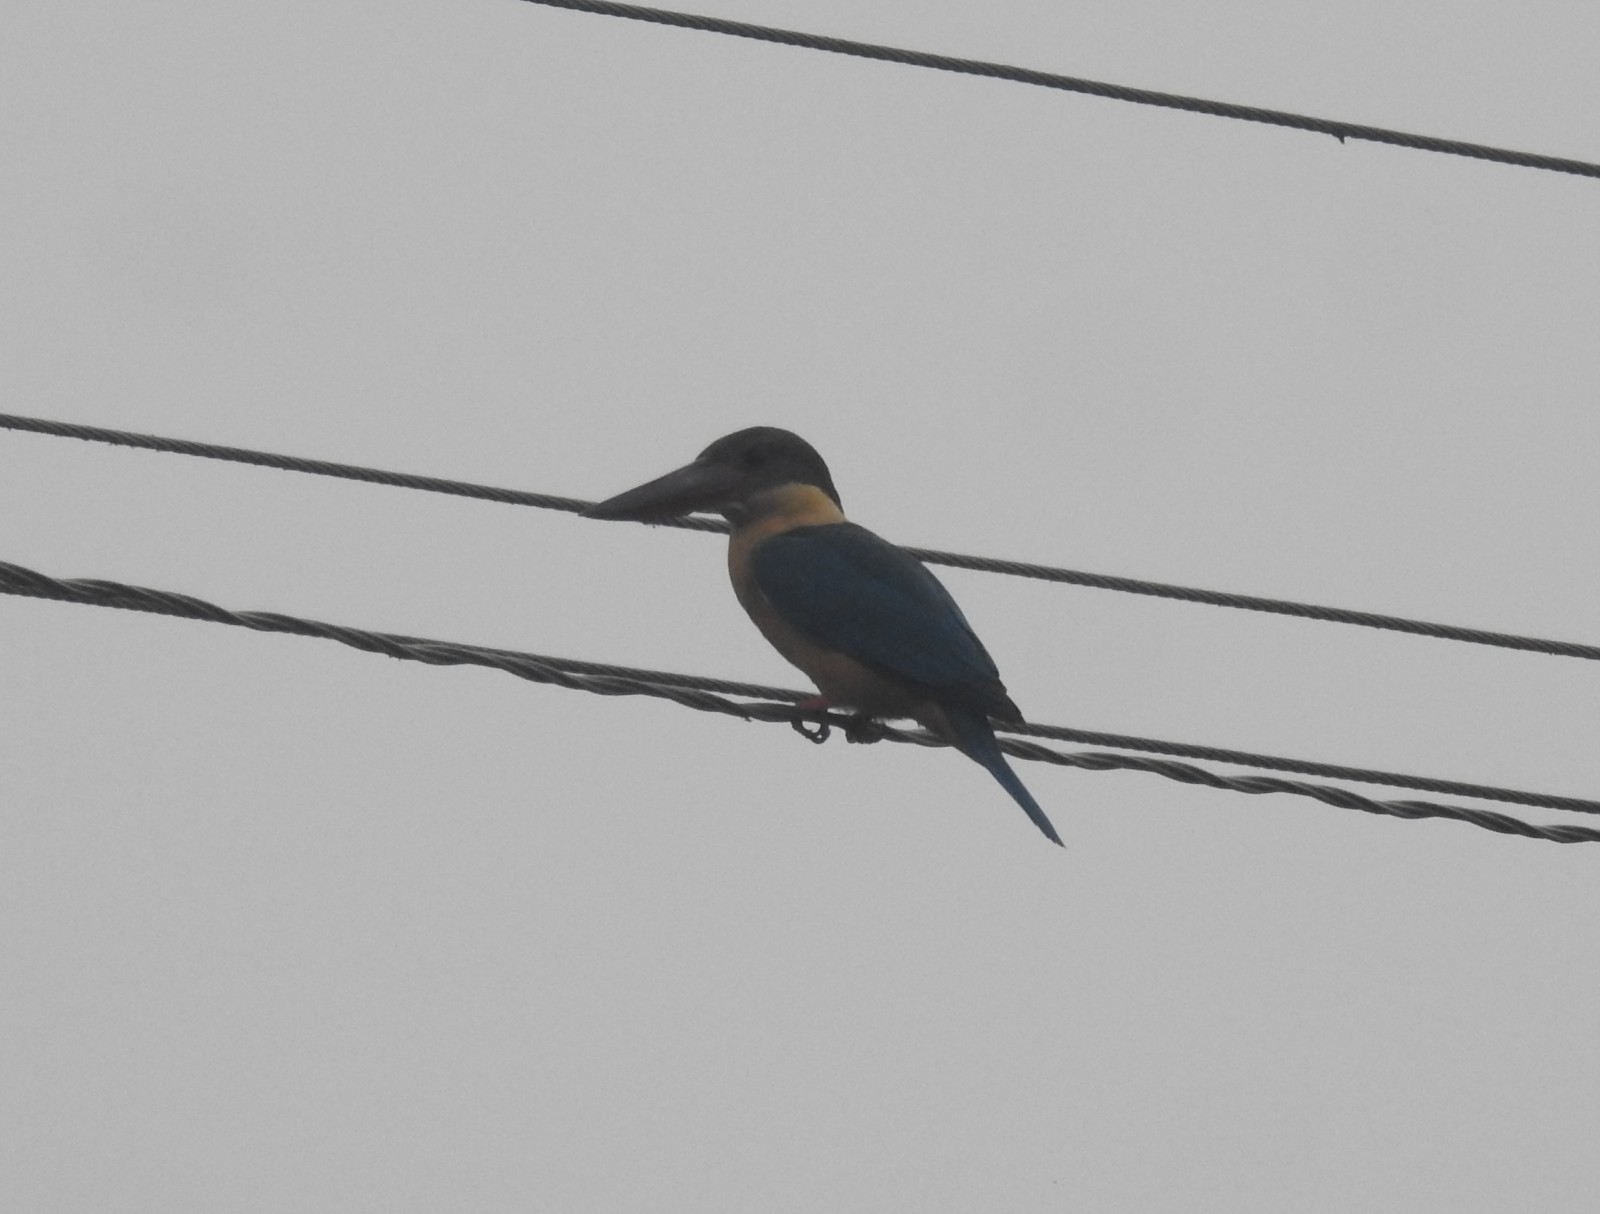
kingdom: Animalia
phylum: Chordata
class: Aves
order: Coraciiformes
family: Alcedinidae
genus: Pelargopsis
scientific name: Pelargopsis capensis
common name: Stork-billed kingfisher
